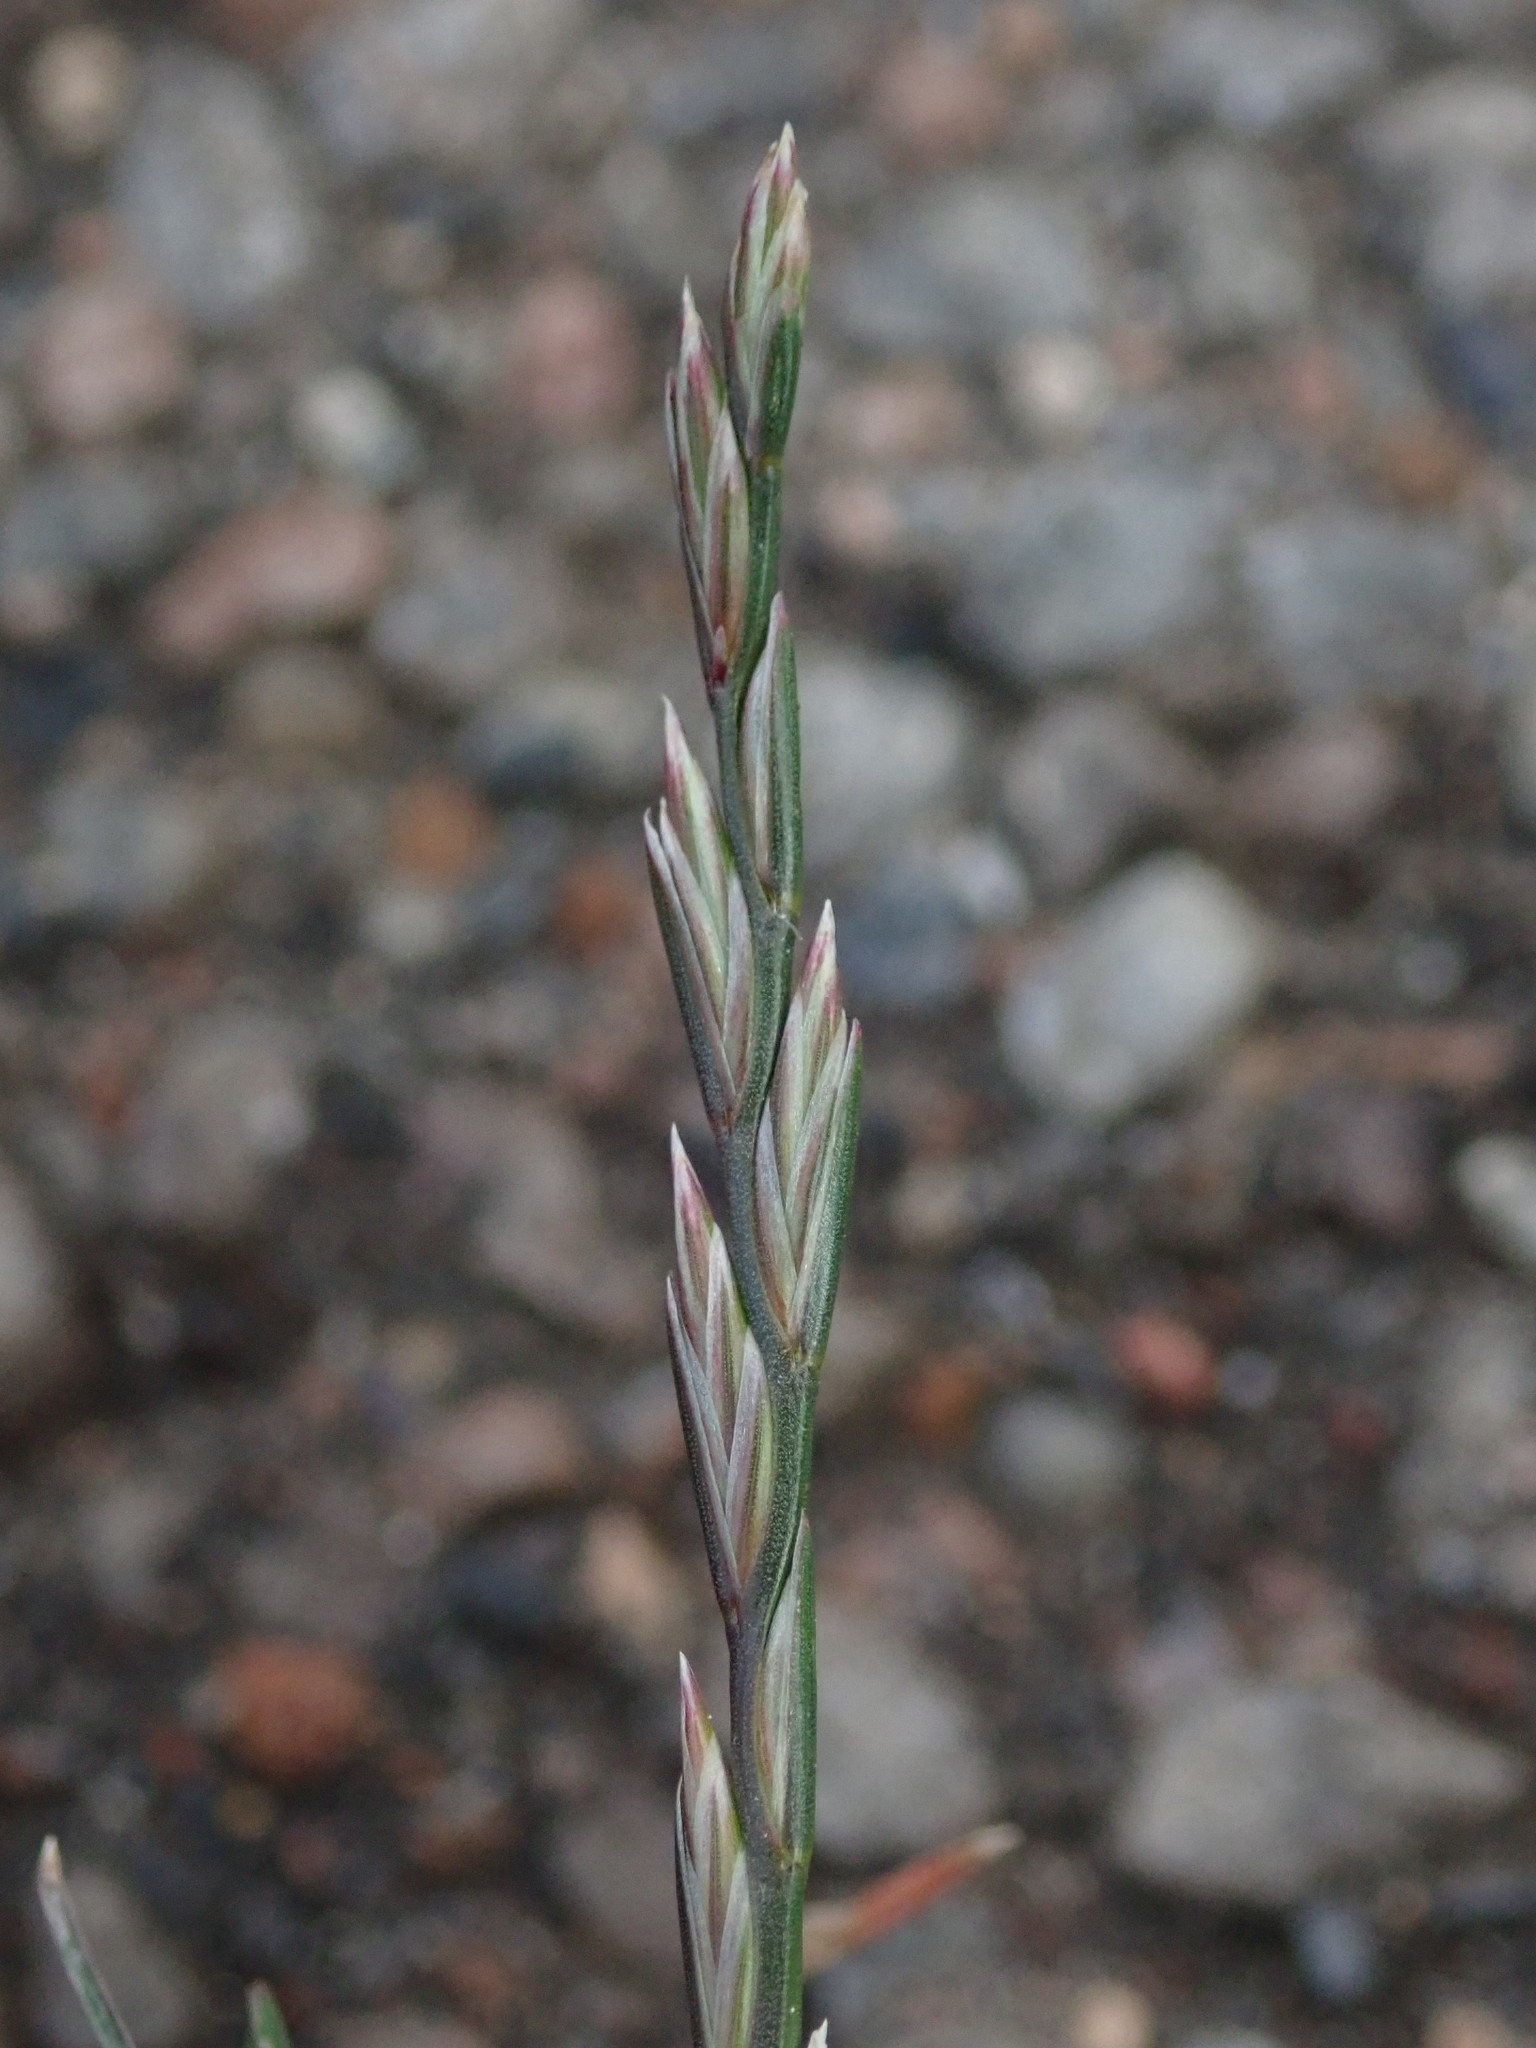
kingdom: Plantae
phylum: Tracheophyta
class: Liliopsida
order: Poales
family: Poaceae
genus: Lolium
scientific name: Lolium perenne
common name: Perennial ryegrass
